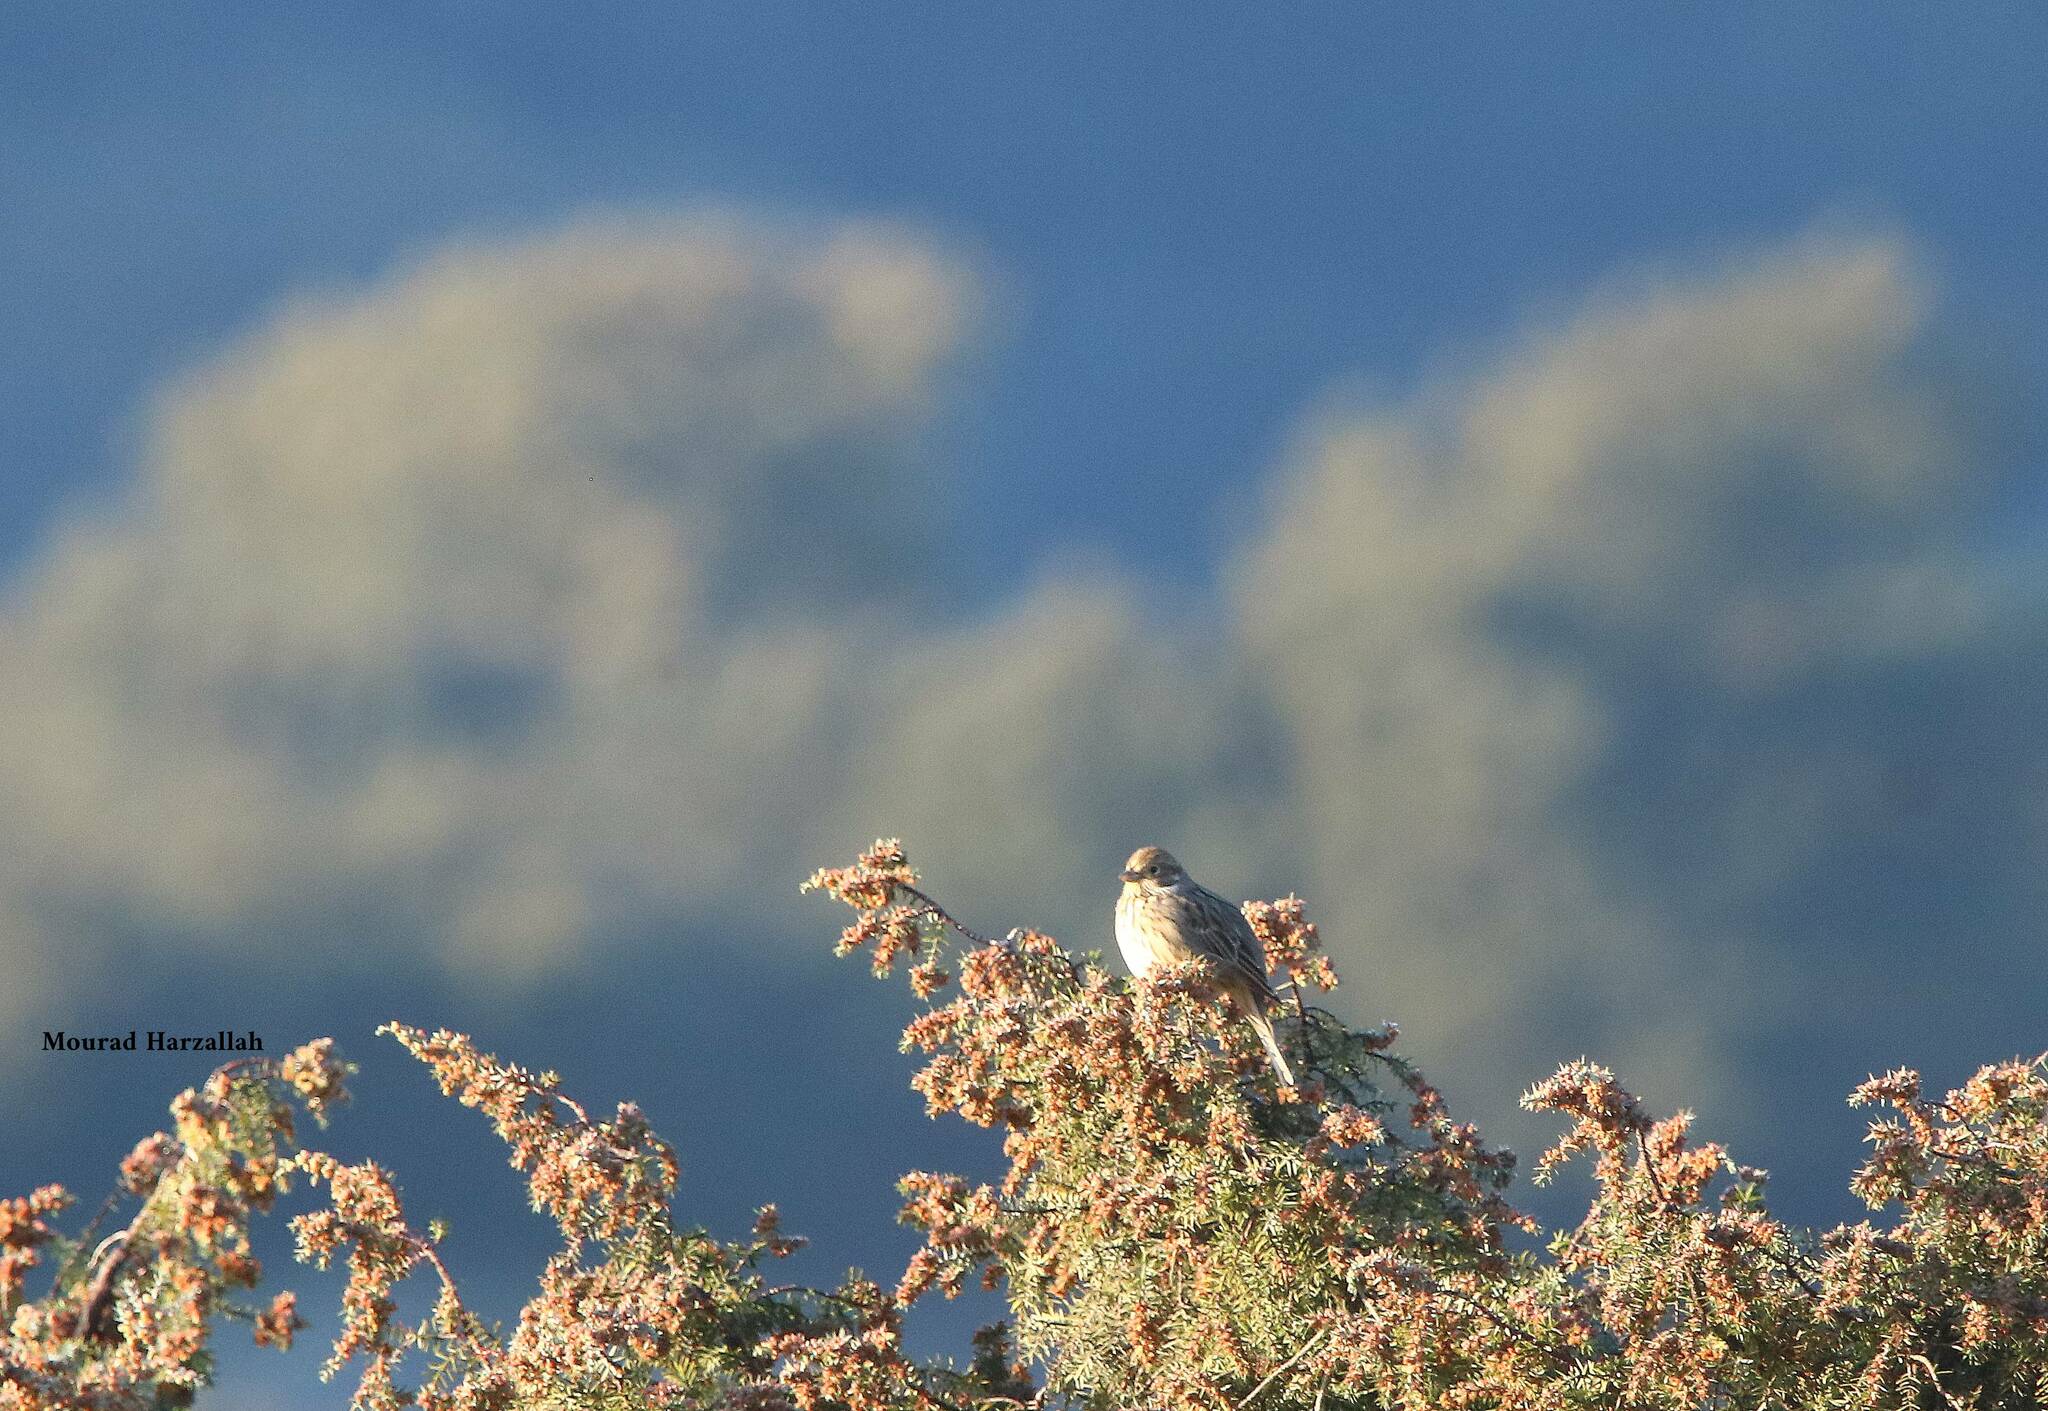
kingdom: Animalia
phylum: Chordata
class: Aves
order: Passeriformes
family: Emberizidae
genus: Emberiza
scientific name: Emberiza cirlus
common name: Cirl bunting
